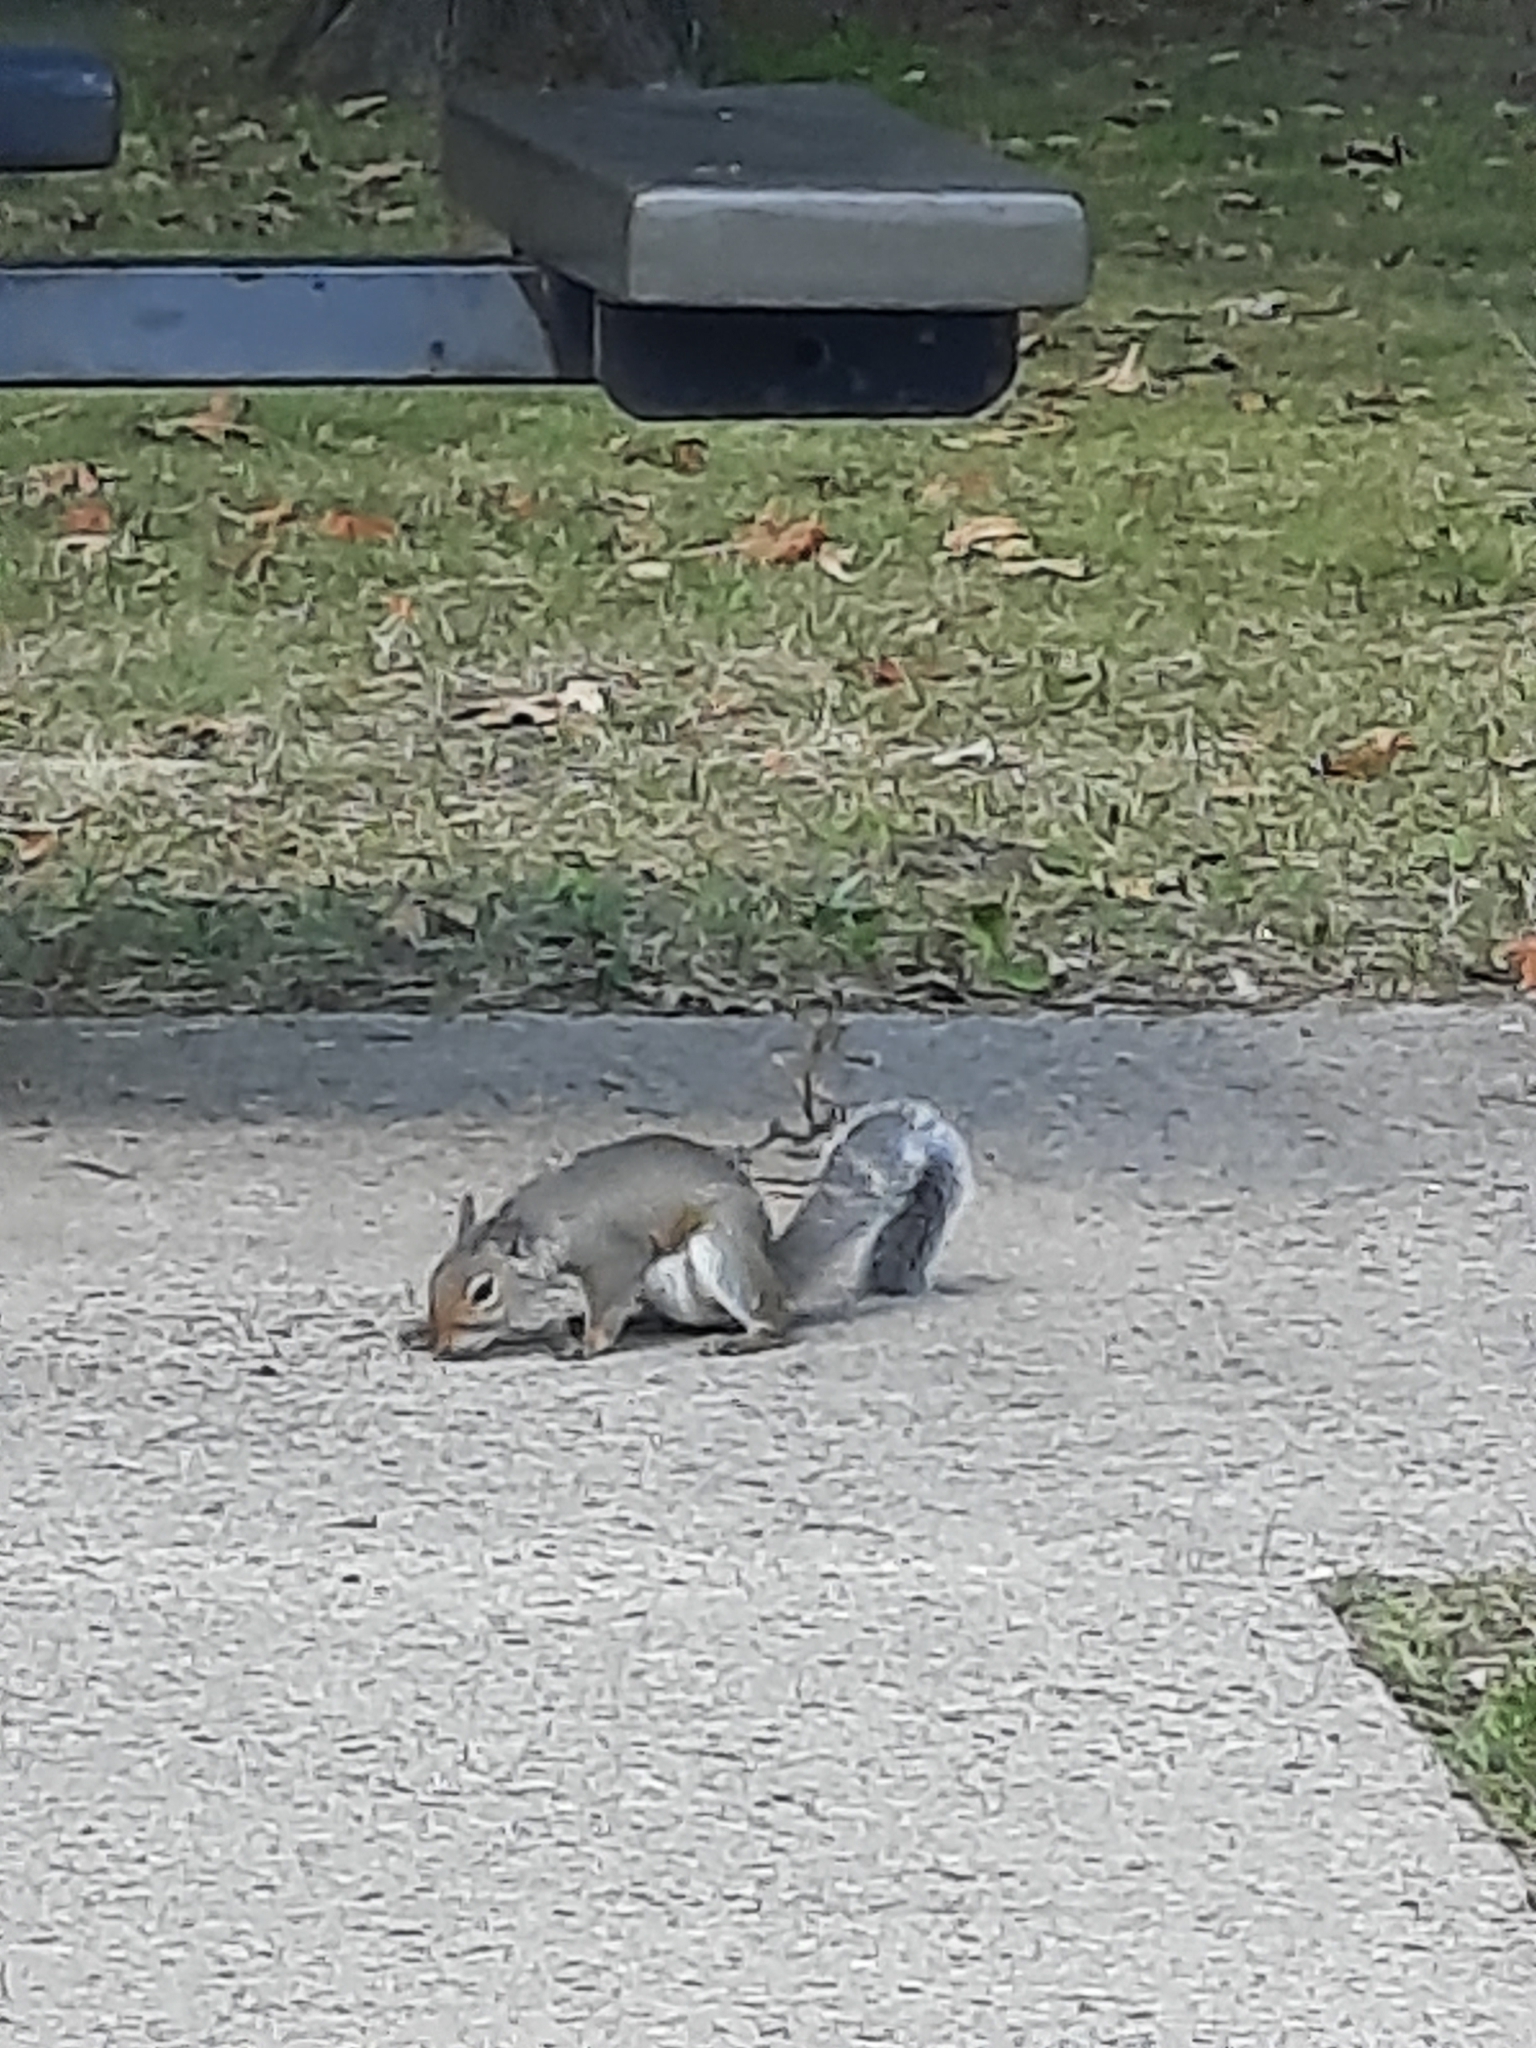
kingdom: Animalia
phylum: Chordata
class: Mammalia
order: Rodentia
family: Sciuridae
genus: Sciurus
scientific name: Sciurus carolinensis
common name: Eastern gray squirrel
